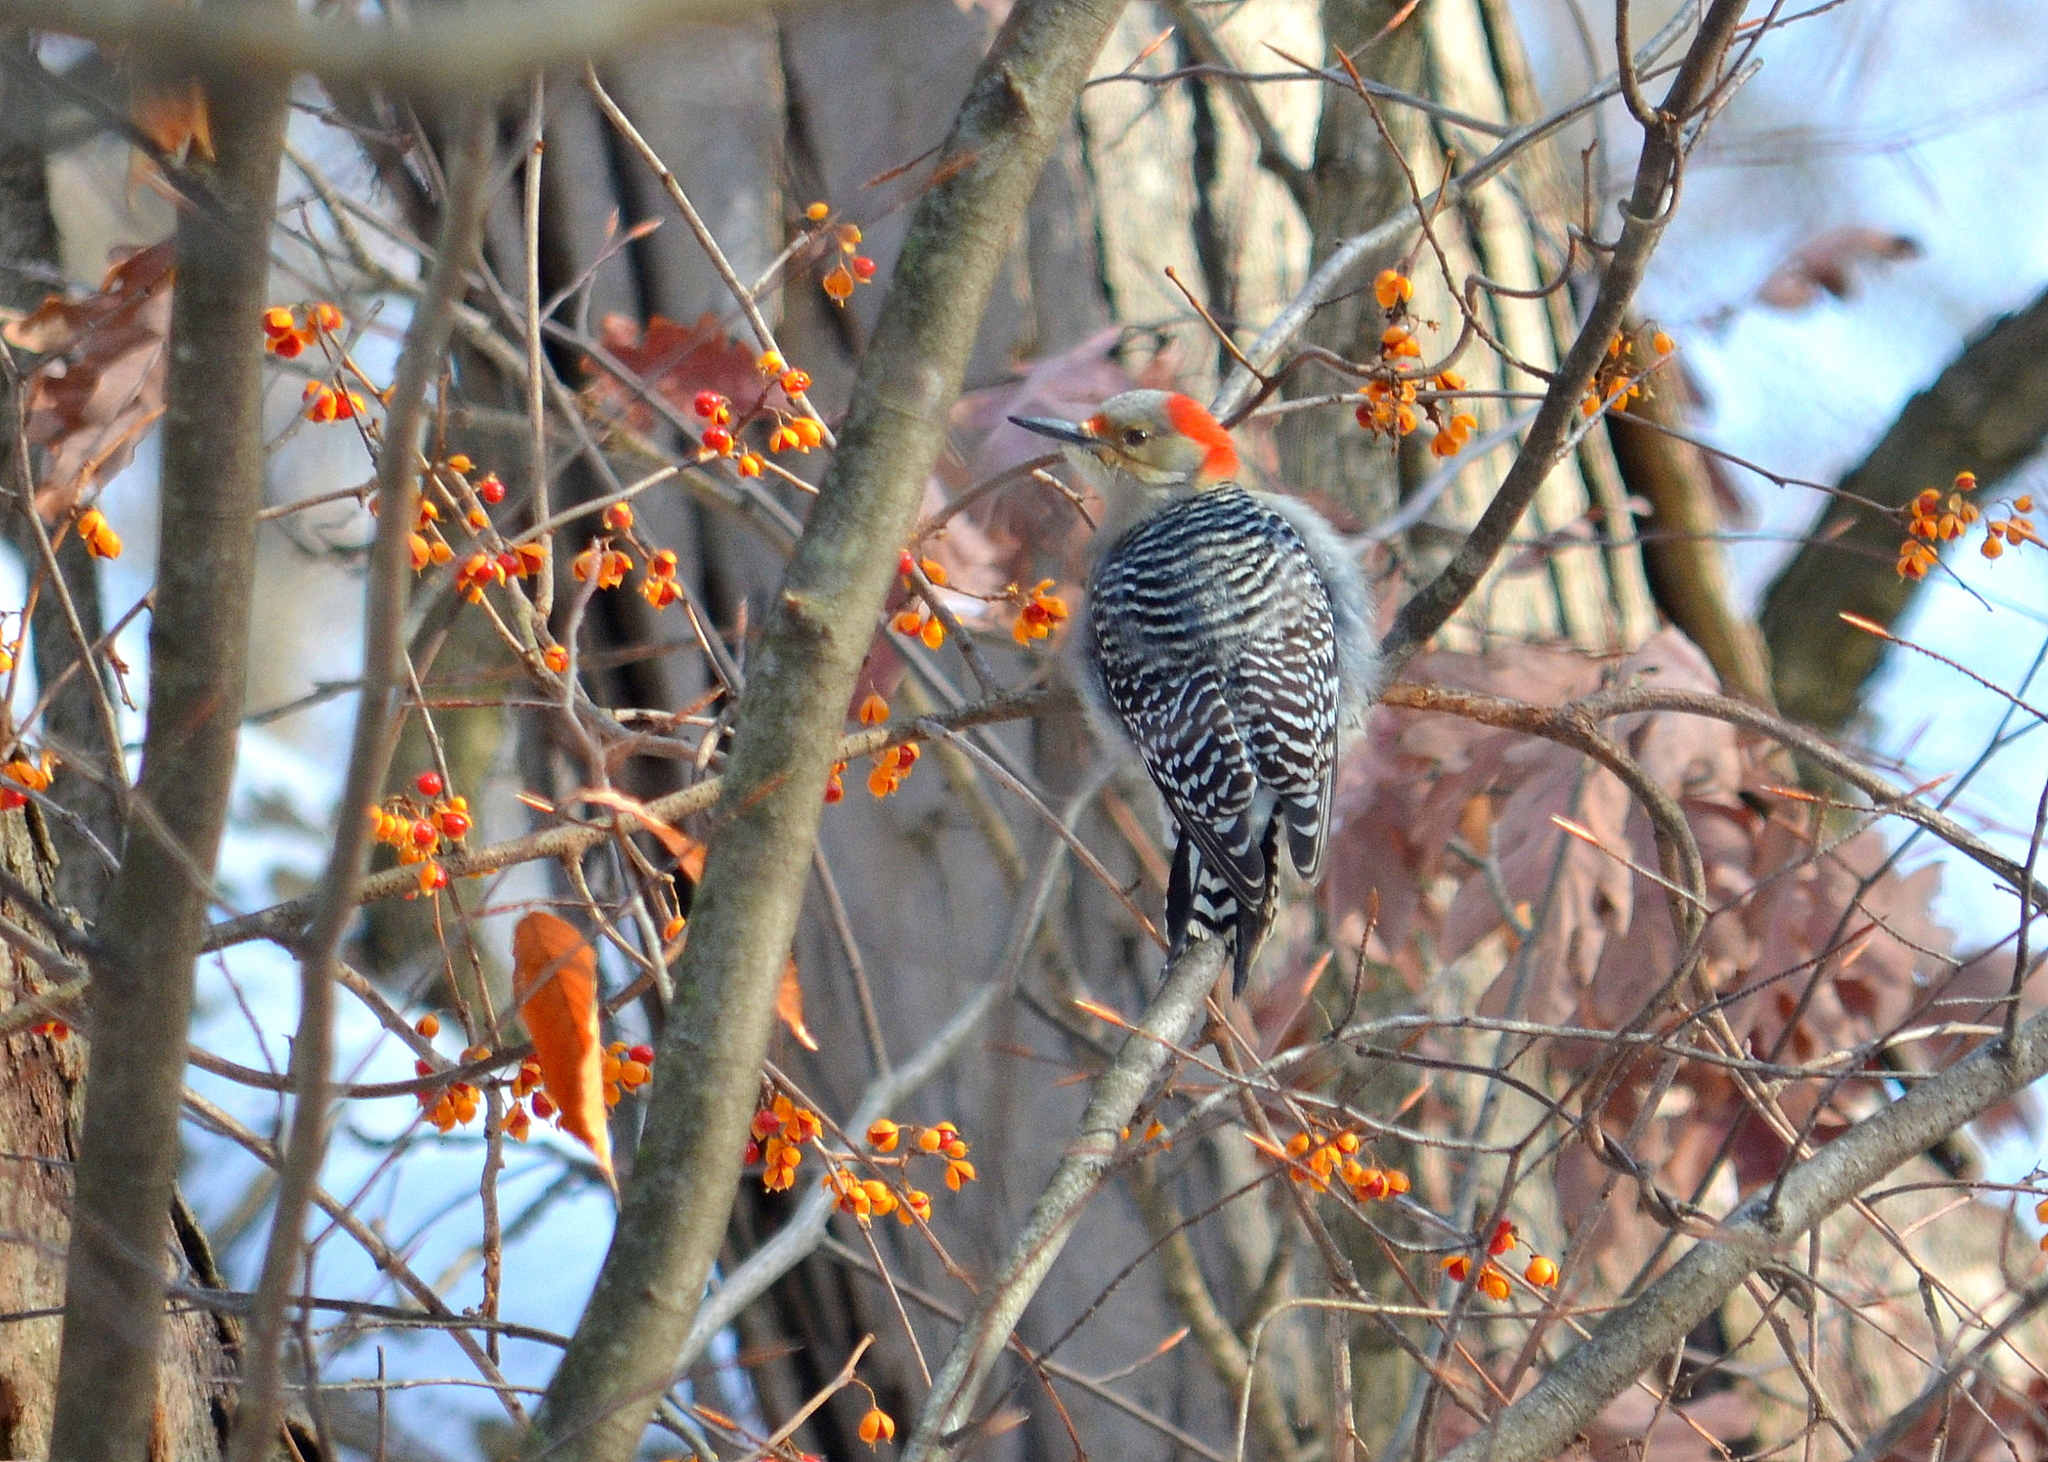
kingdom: Animalia
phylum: Chordata
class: Aves
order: Piciformes
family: Picidae
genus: Melanerpes
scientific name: Melanerpes carolinus
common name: Red-bellied woodpecker
